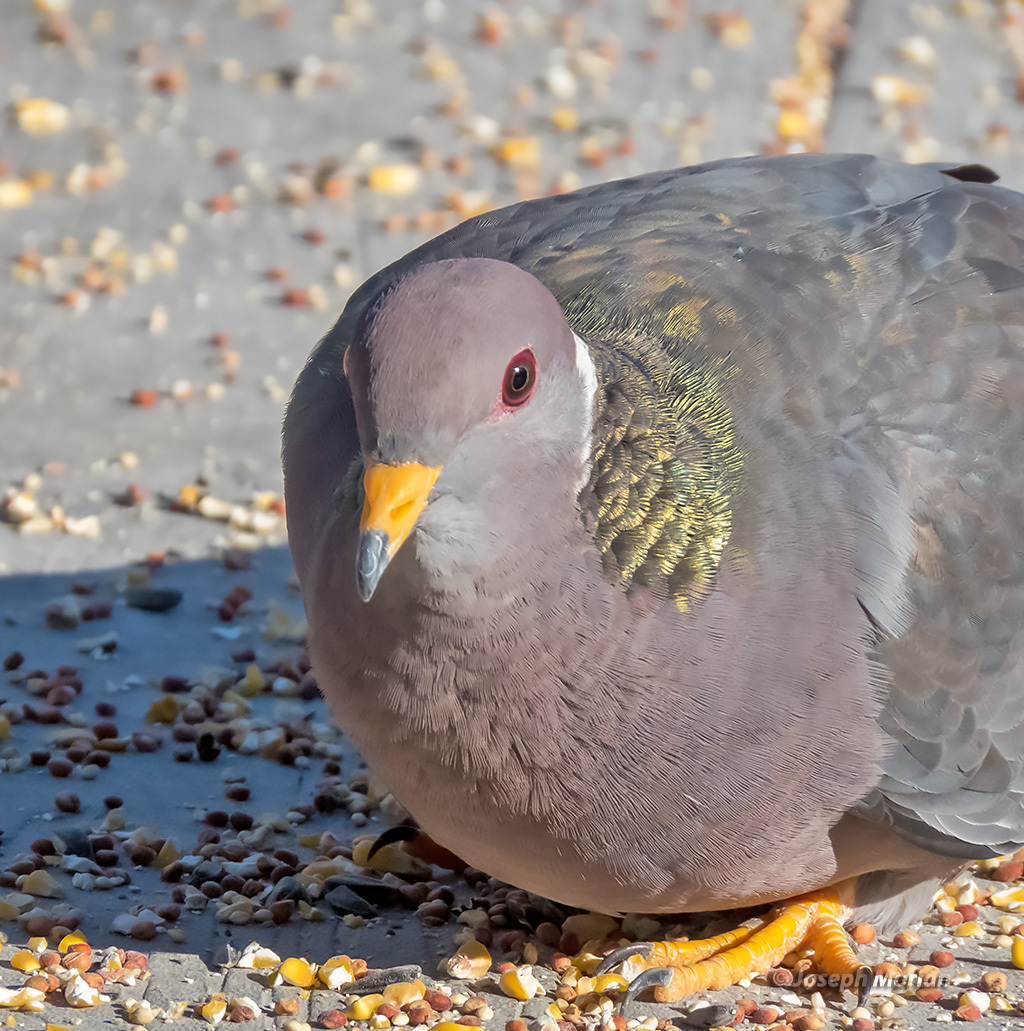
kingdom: Animalia
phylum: Chordata
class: Aves
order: Columbiformes
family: Columbidae
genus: Patagioenas
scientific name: Patagioenas fasciata
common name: Band-tailed pigeon
